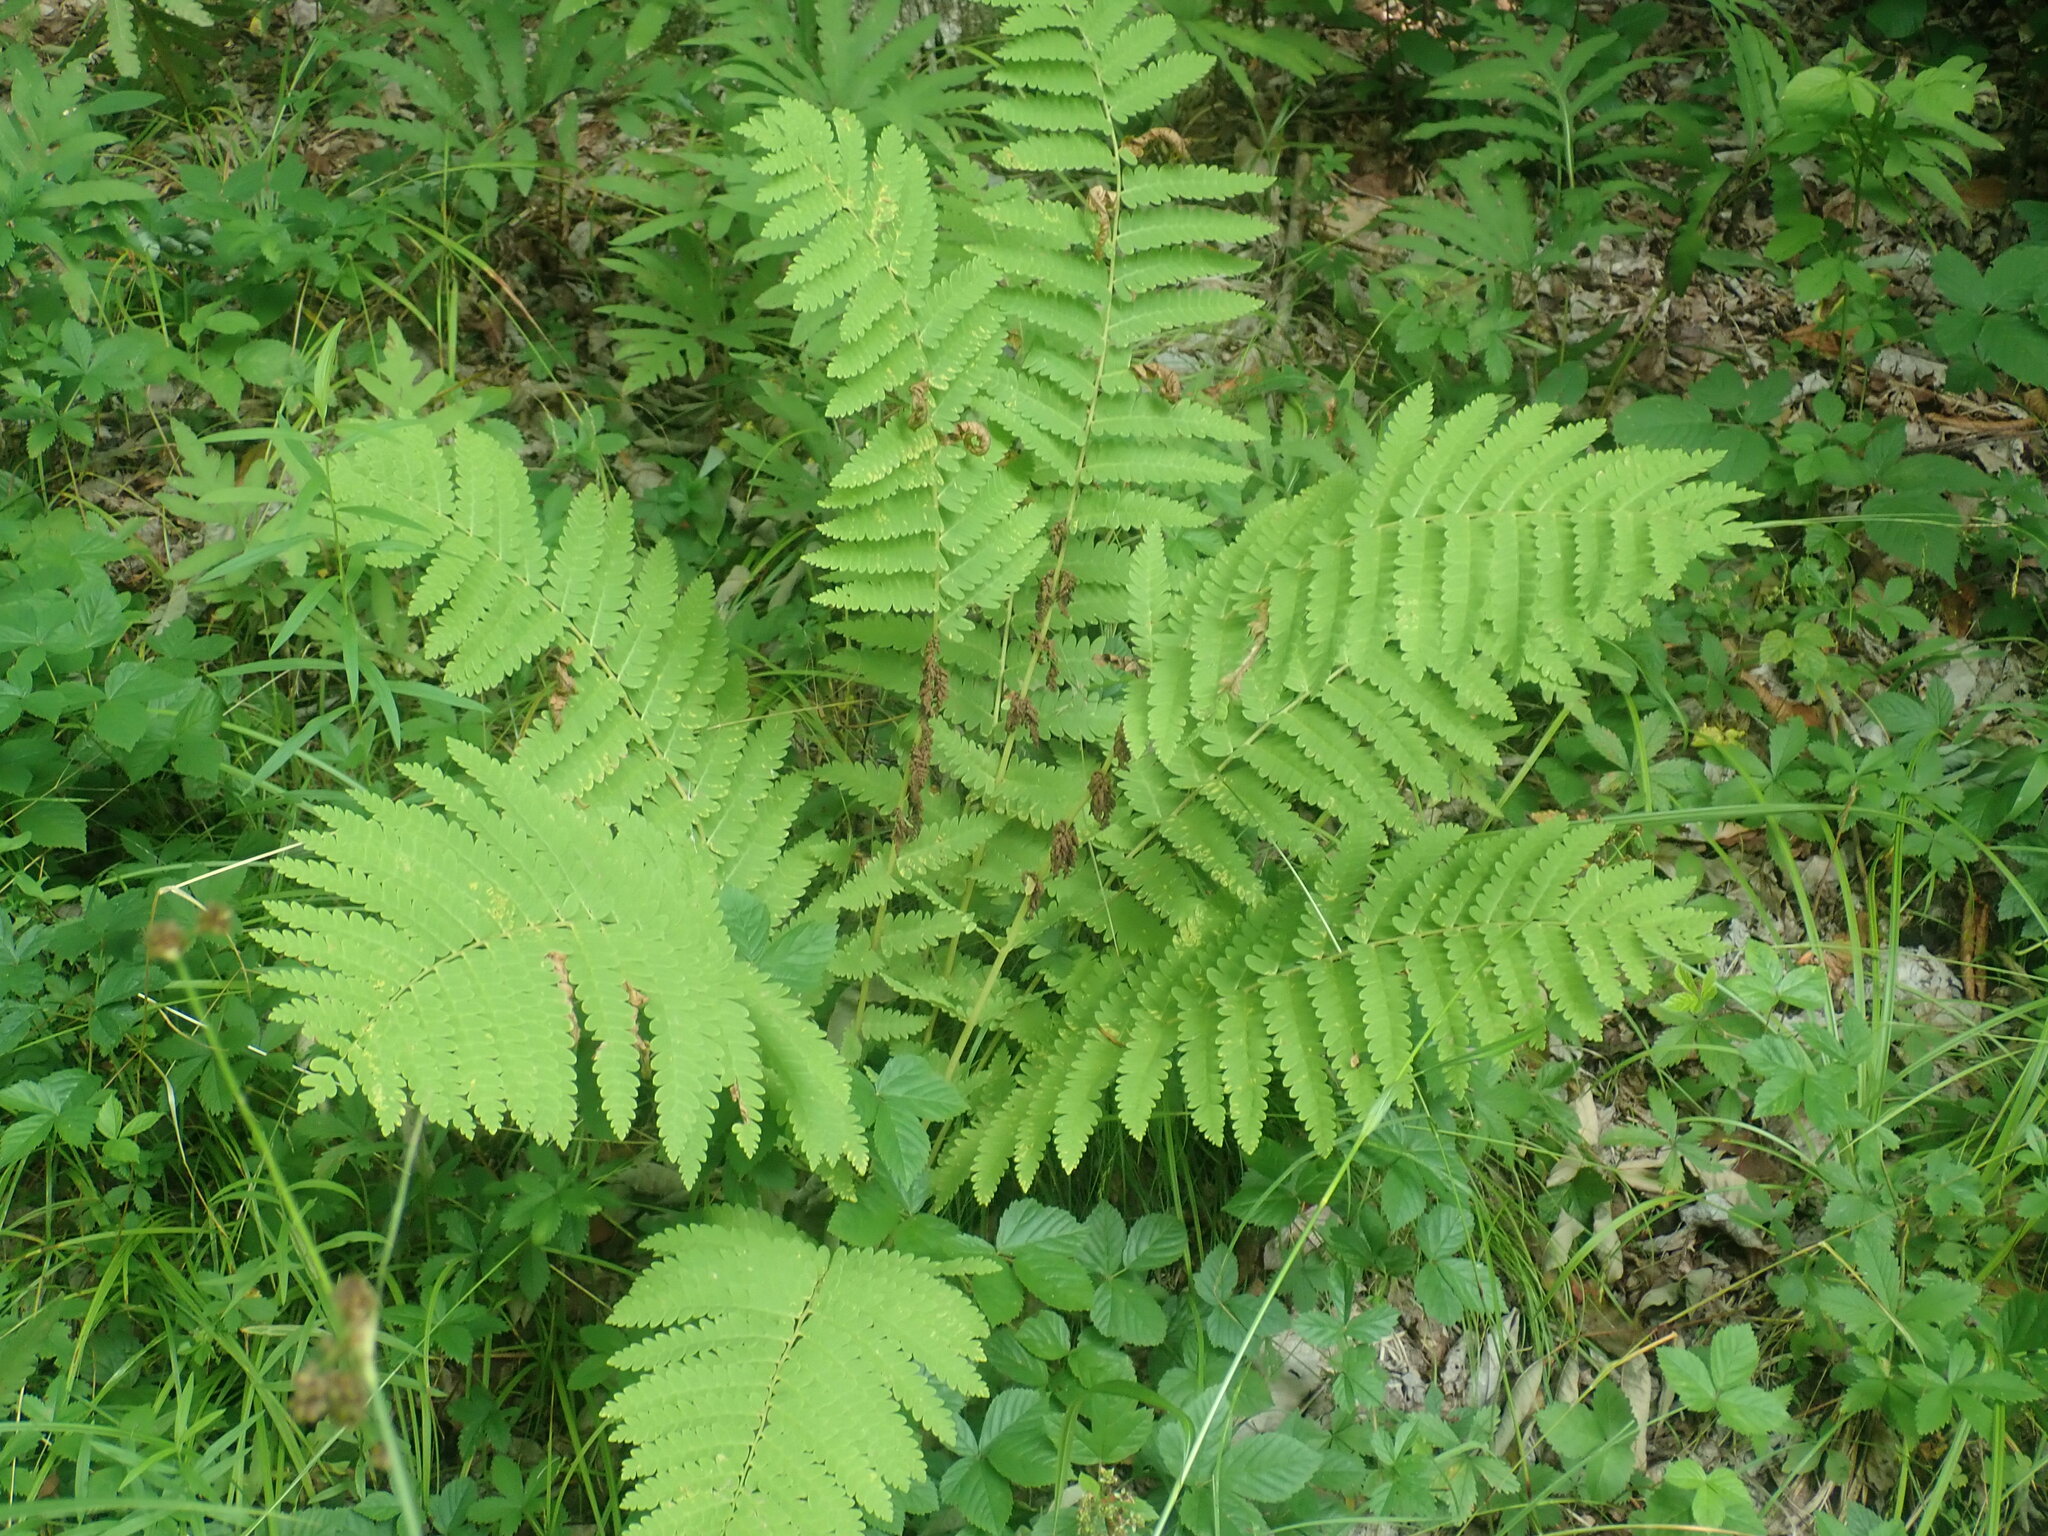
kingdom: Plantae
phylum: Tracheophyta
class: Polypodiopsida
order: Osmundales
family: Osmundaceae
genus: Claytosmunda
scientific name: Claytosmunda claytoniana
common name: Clayton's fern
